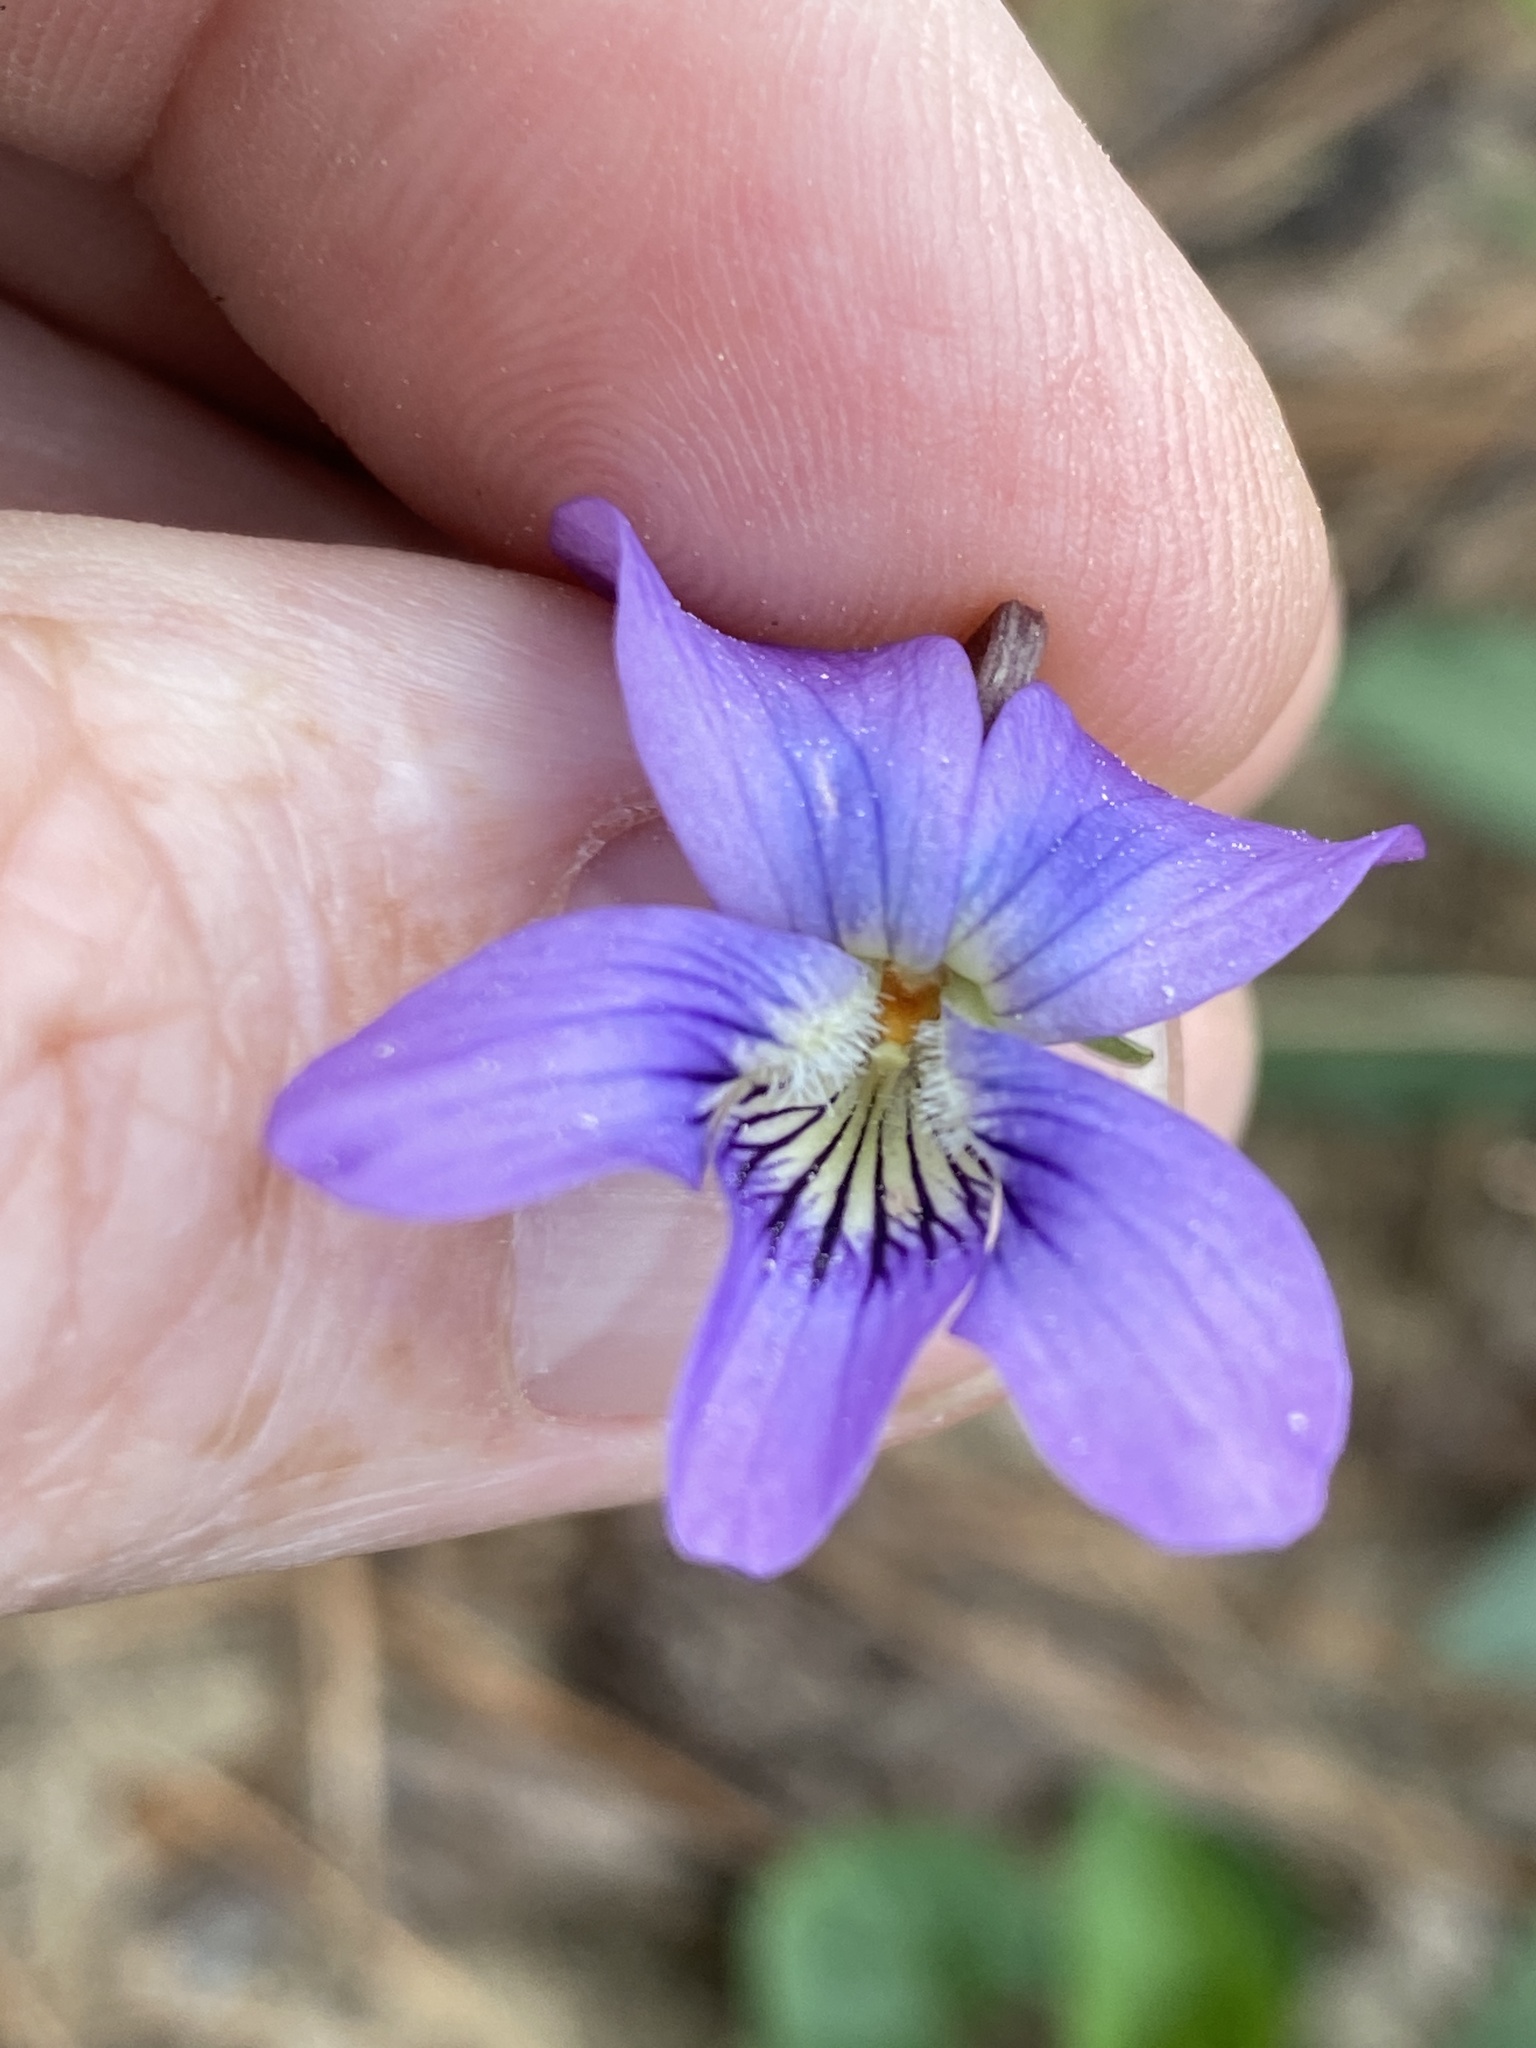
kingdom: Plantae
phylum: Tracheophyta
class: Magnoliopsida
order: Malpighiales
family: Violaceae
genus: Viola
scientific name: Viola sororia
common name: Dooryard violet
